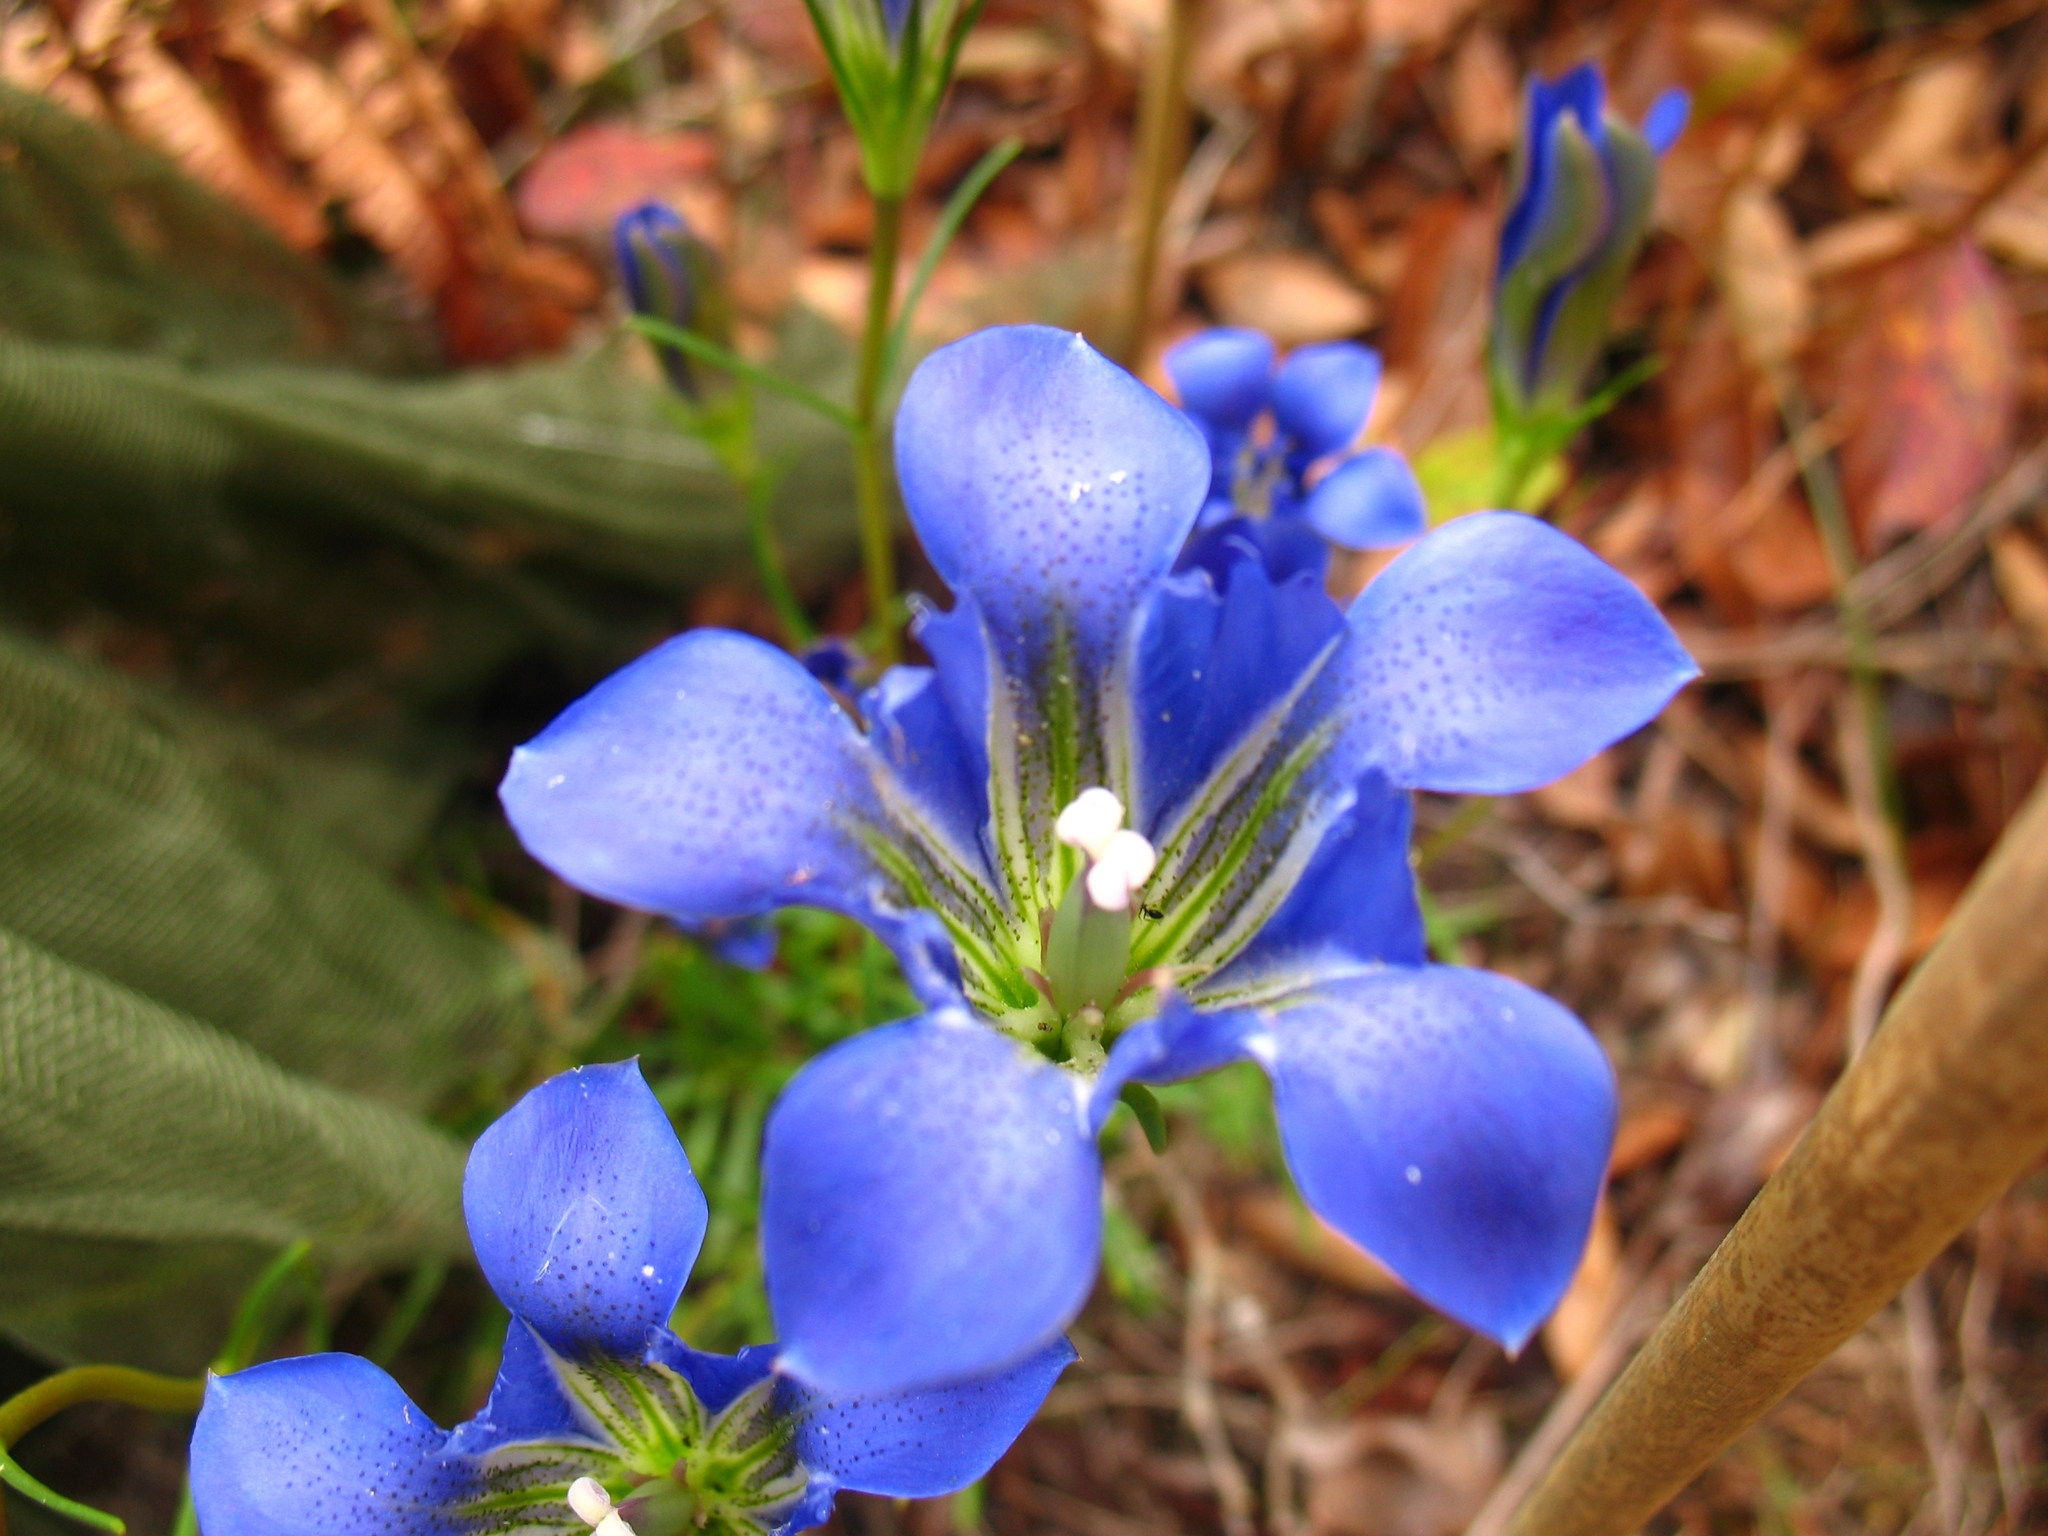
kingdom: Plantae
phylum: Tracheophyta
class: Magnoliopsida
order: Gentianales
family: Gentianaceae
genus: Gentiana
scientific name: Gentiana autumnalis
